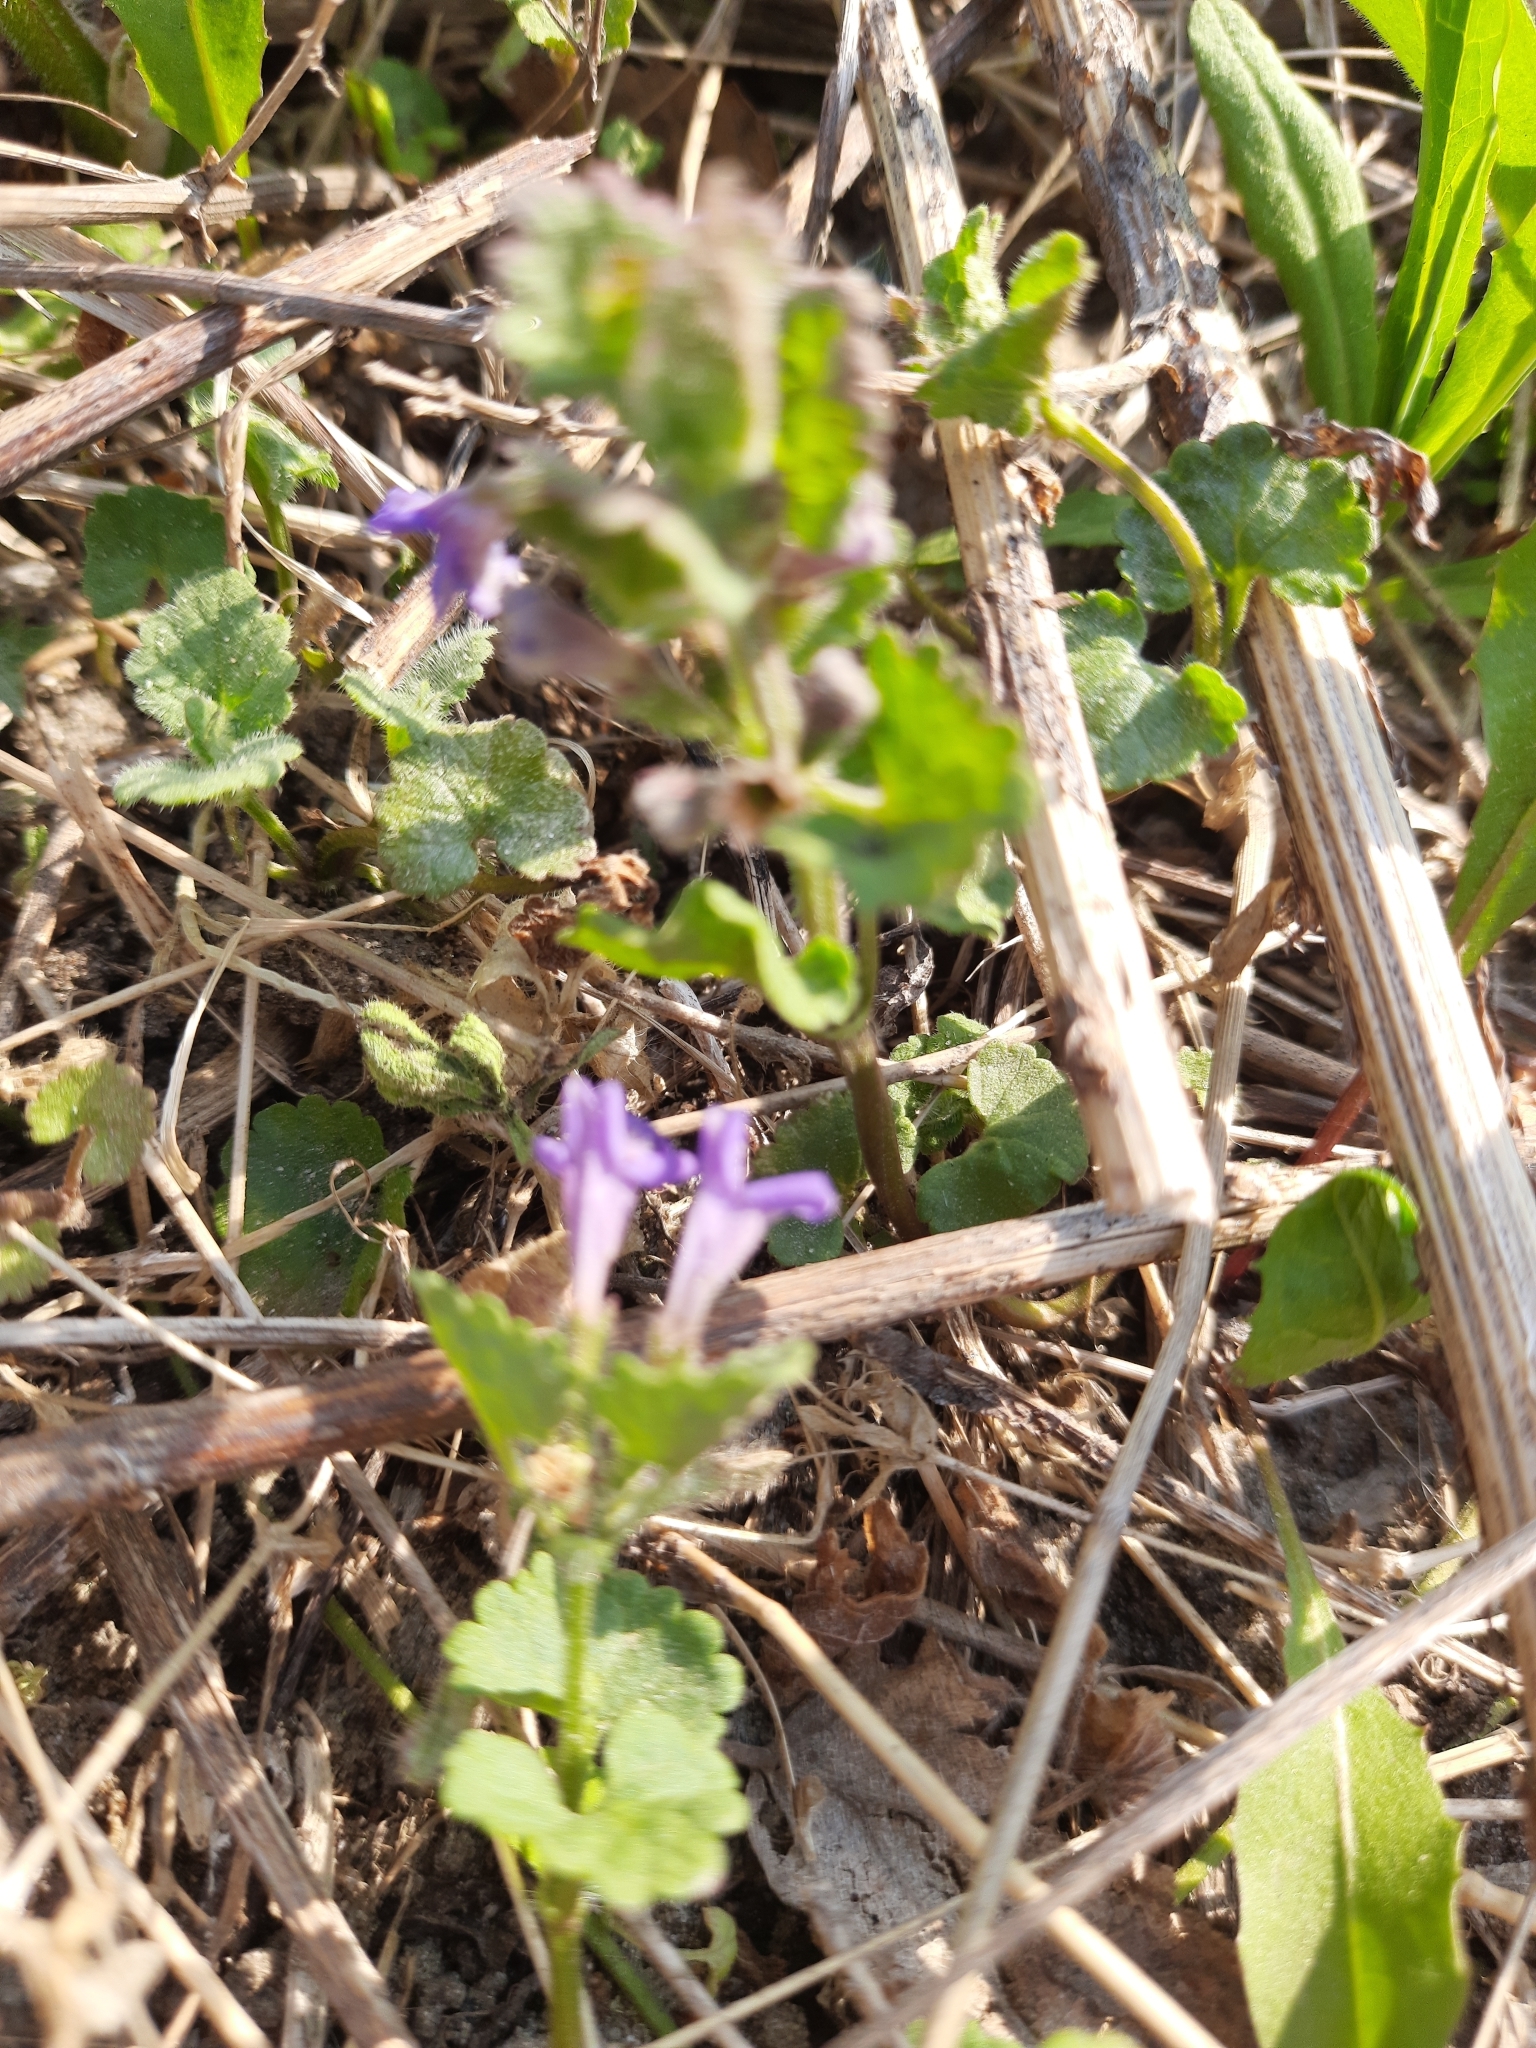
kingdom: Plantae
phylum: Tracheophyta
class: Magnoliopsida
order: Lamiales
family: Lamiaceae
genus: Glechoma
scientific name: Glechoma hederacea
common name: Ground ivy
